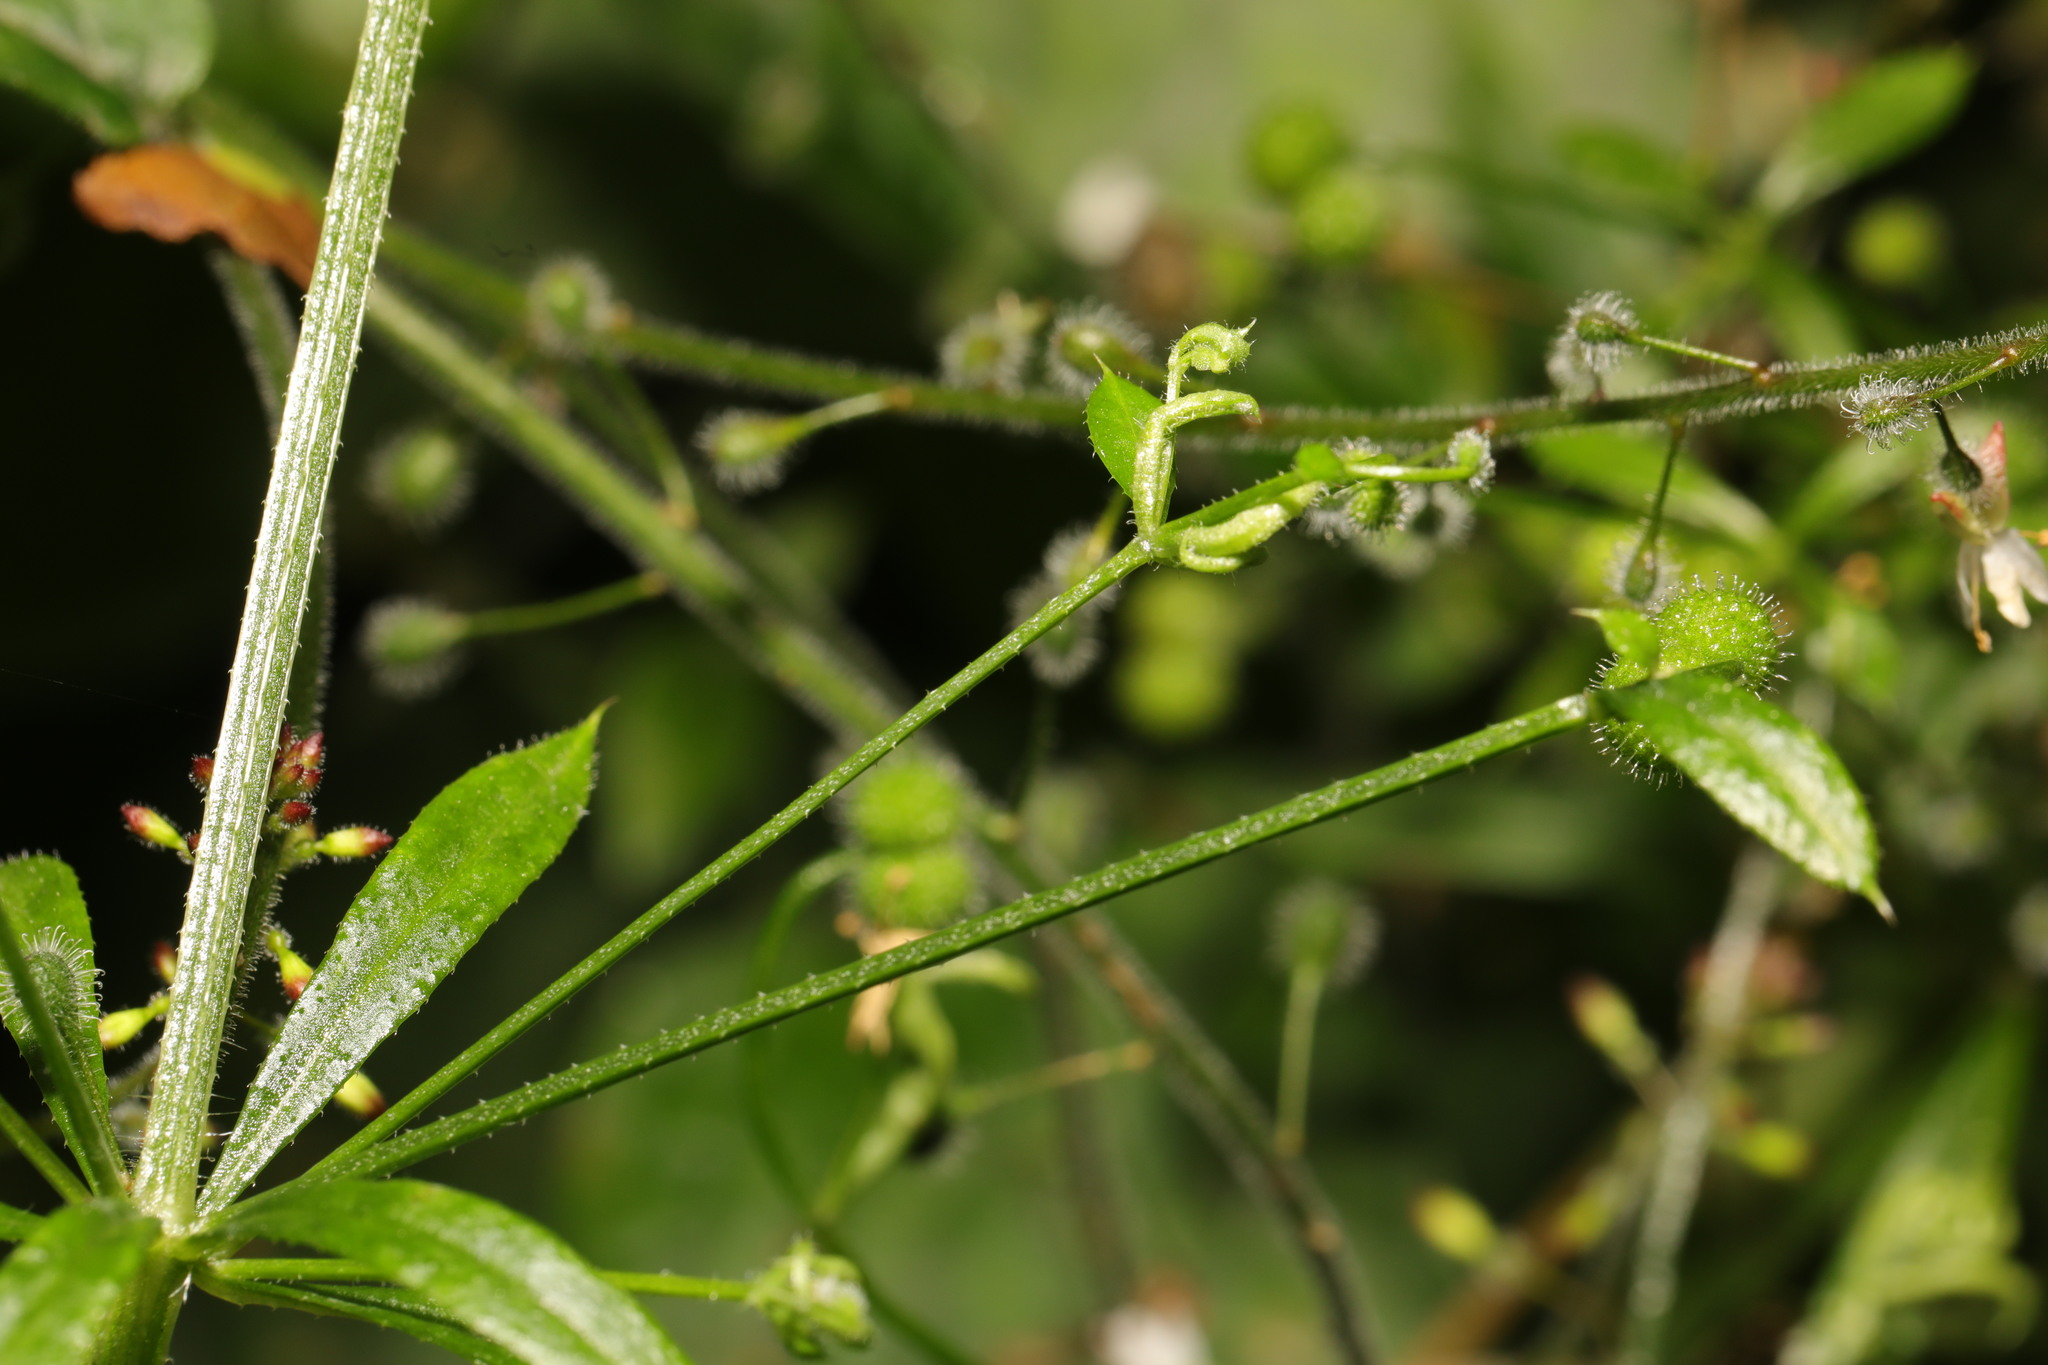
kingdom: Animalia
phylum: Arthropoda
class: Arachnida
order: Trombidiformes
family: Eriophyidae
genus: Cecidophyes
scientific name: Cecidophyes rouhollahi
